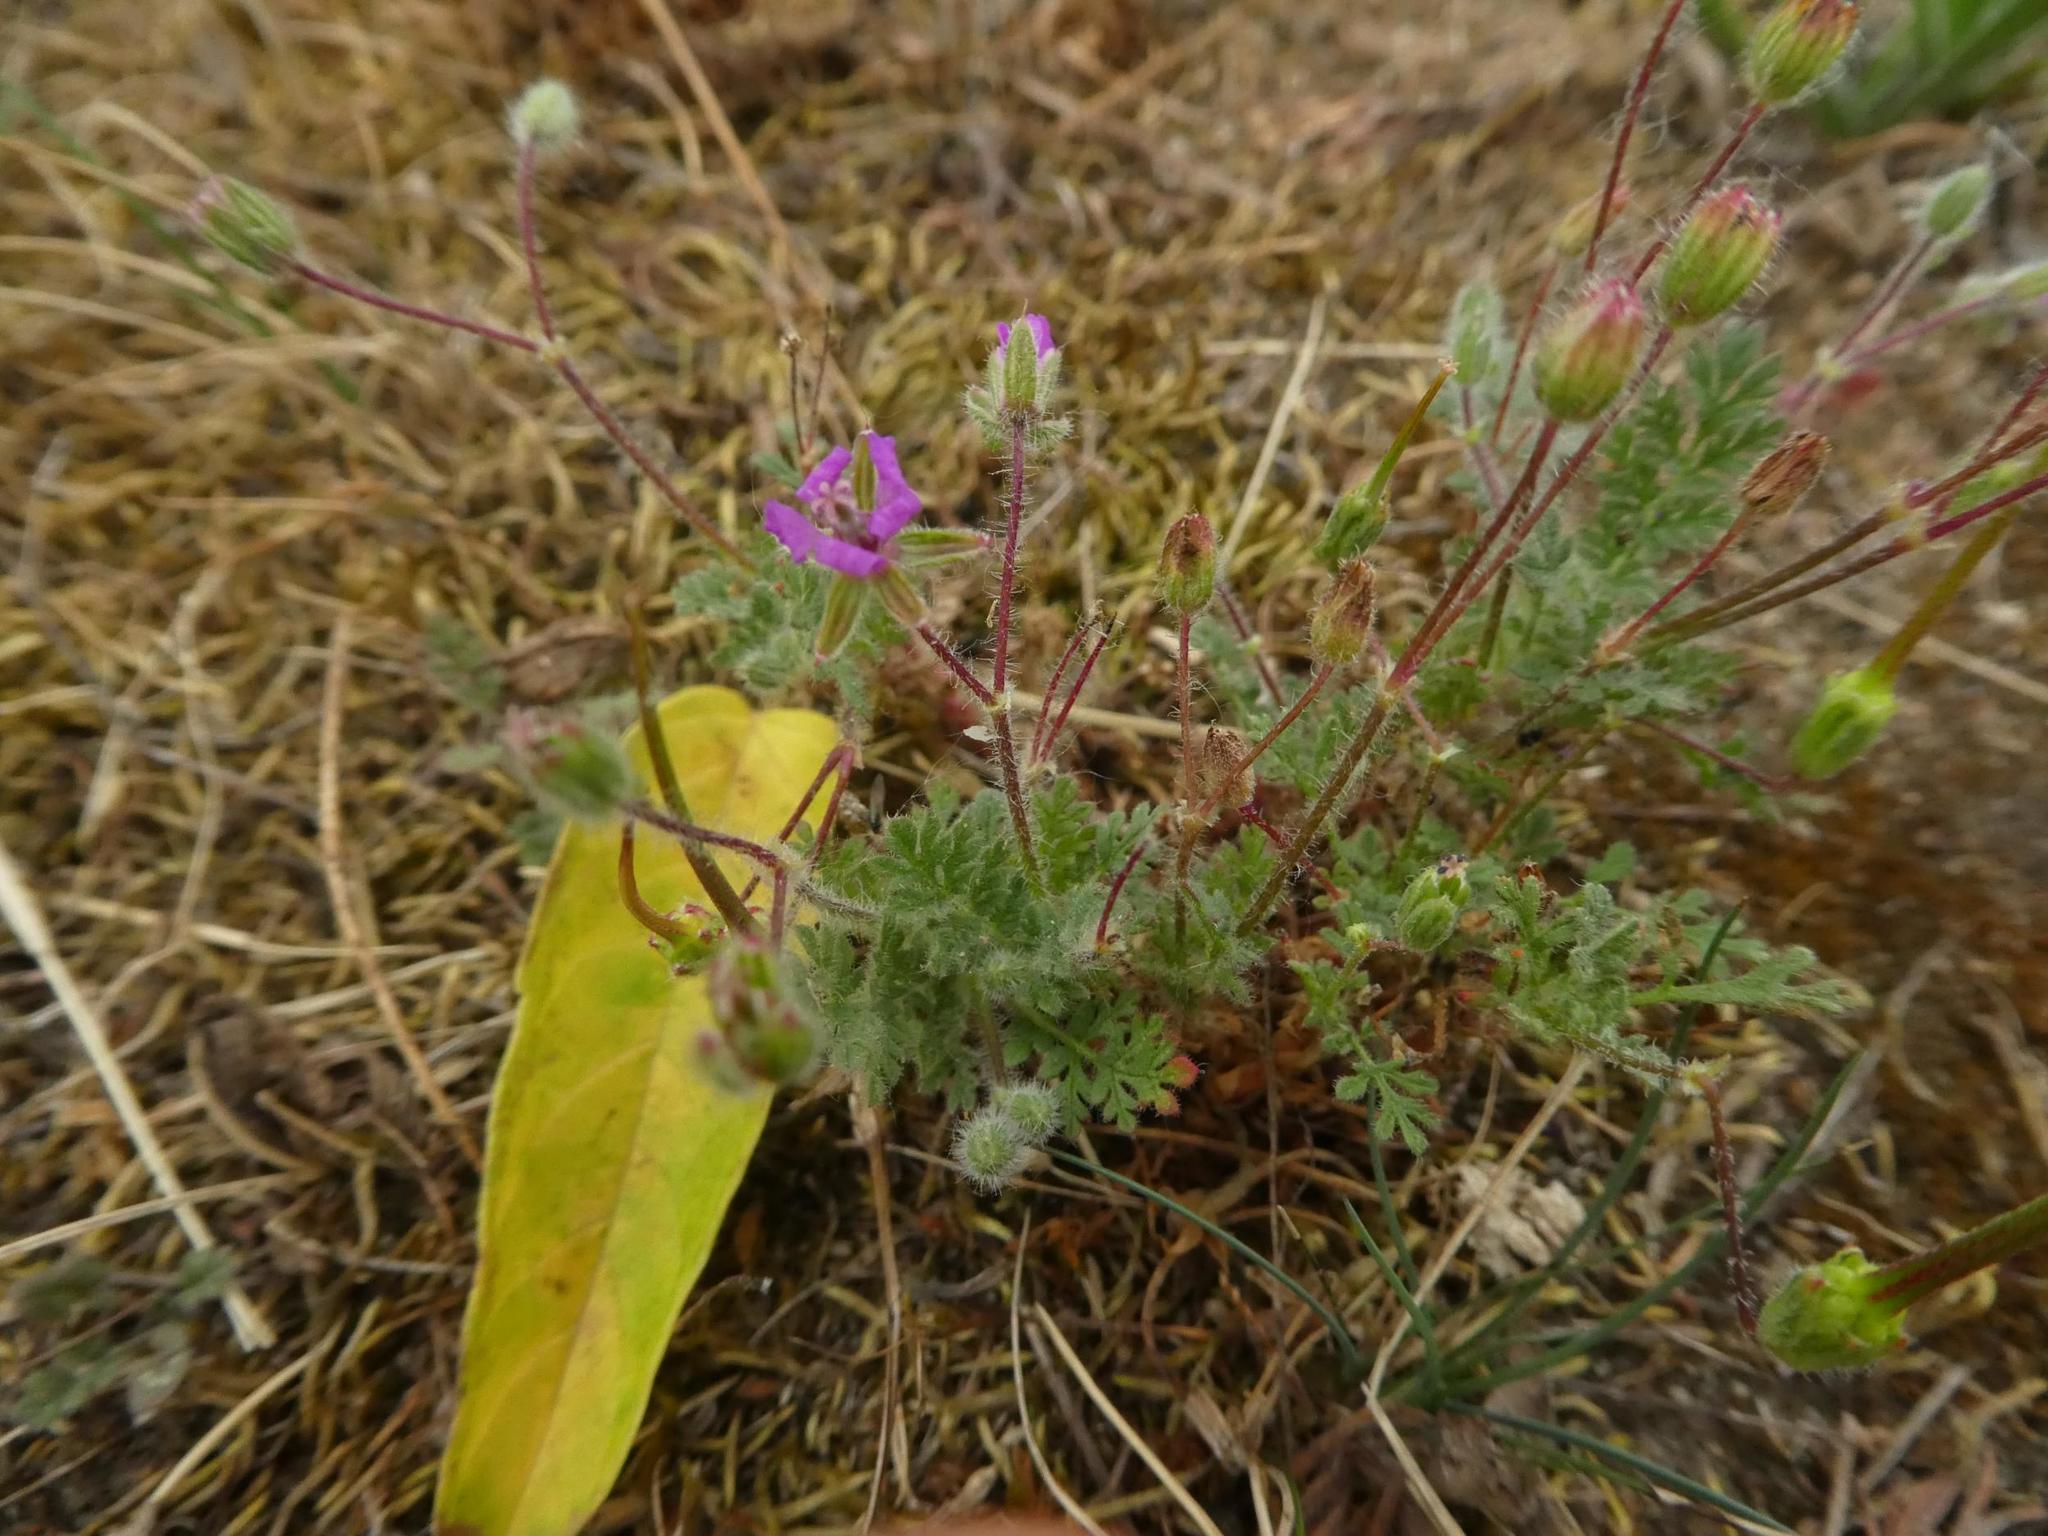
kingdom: Plantae
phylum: Tracheophyta
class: Magnoliopsida
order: Geraniales
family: Geraniaceae
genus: Erodium
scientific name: Erodium cicutarium
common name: Common stork's-bill
